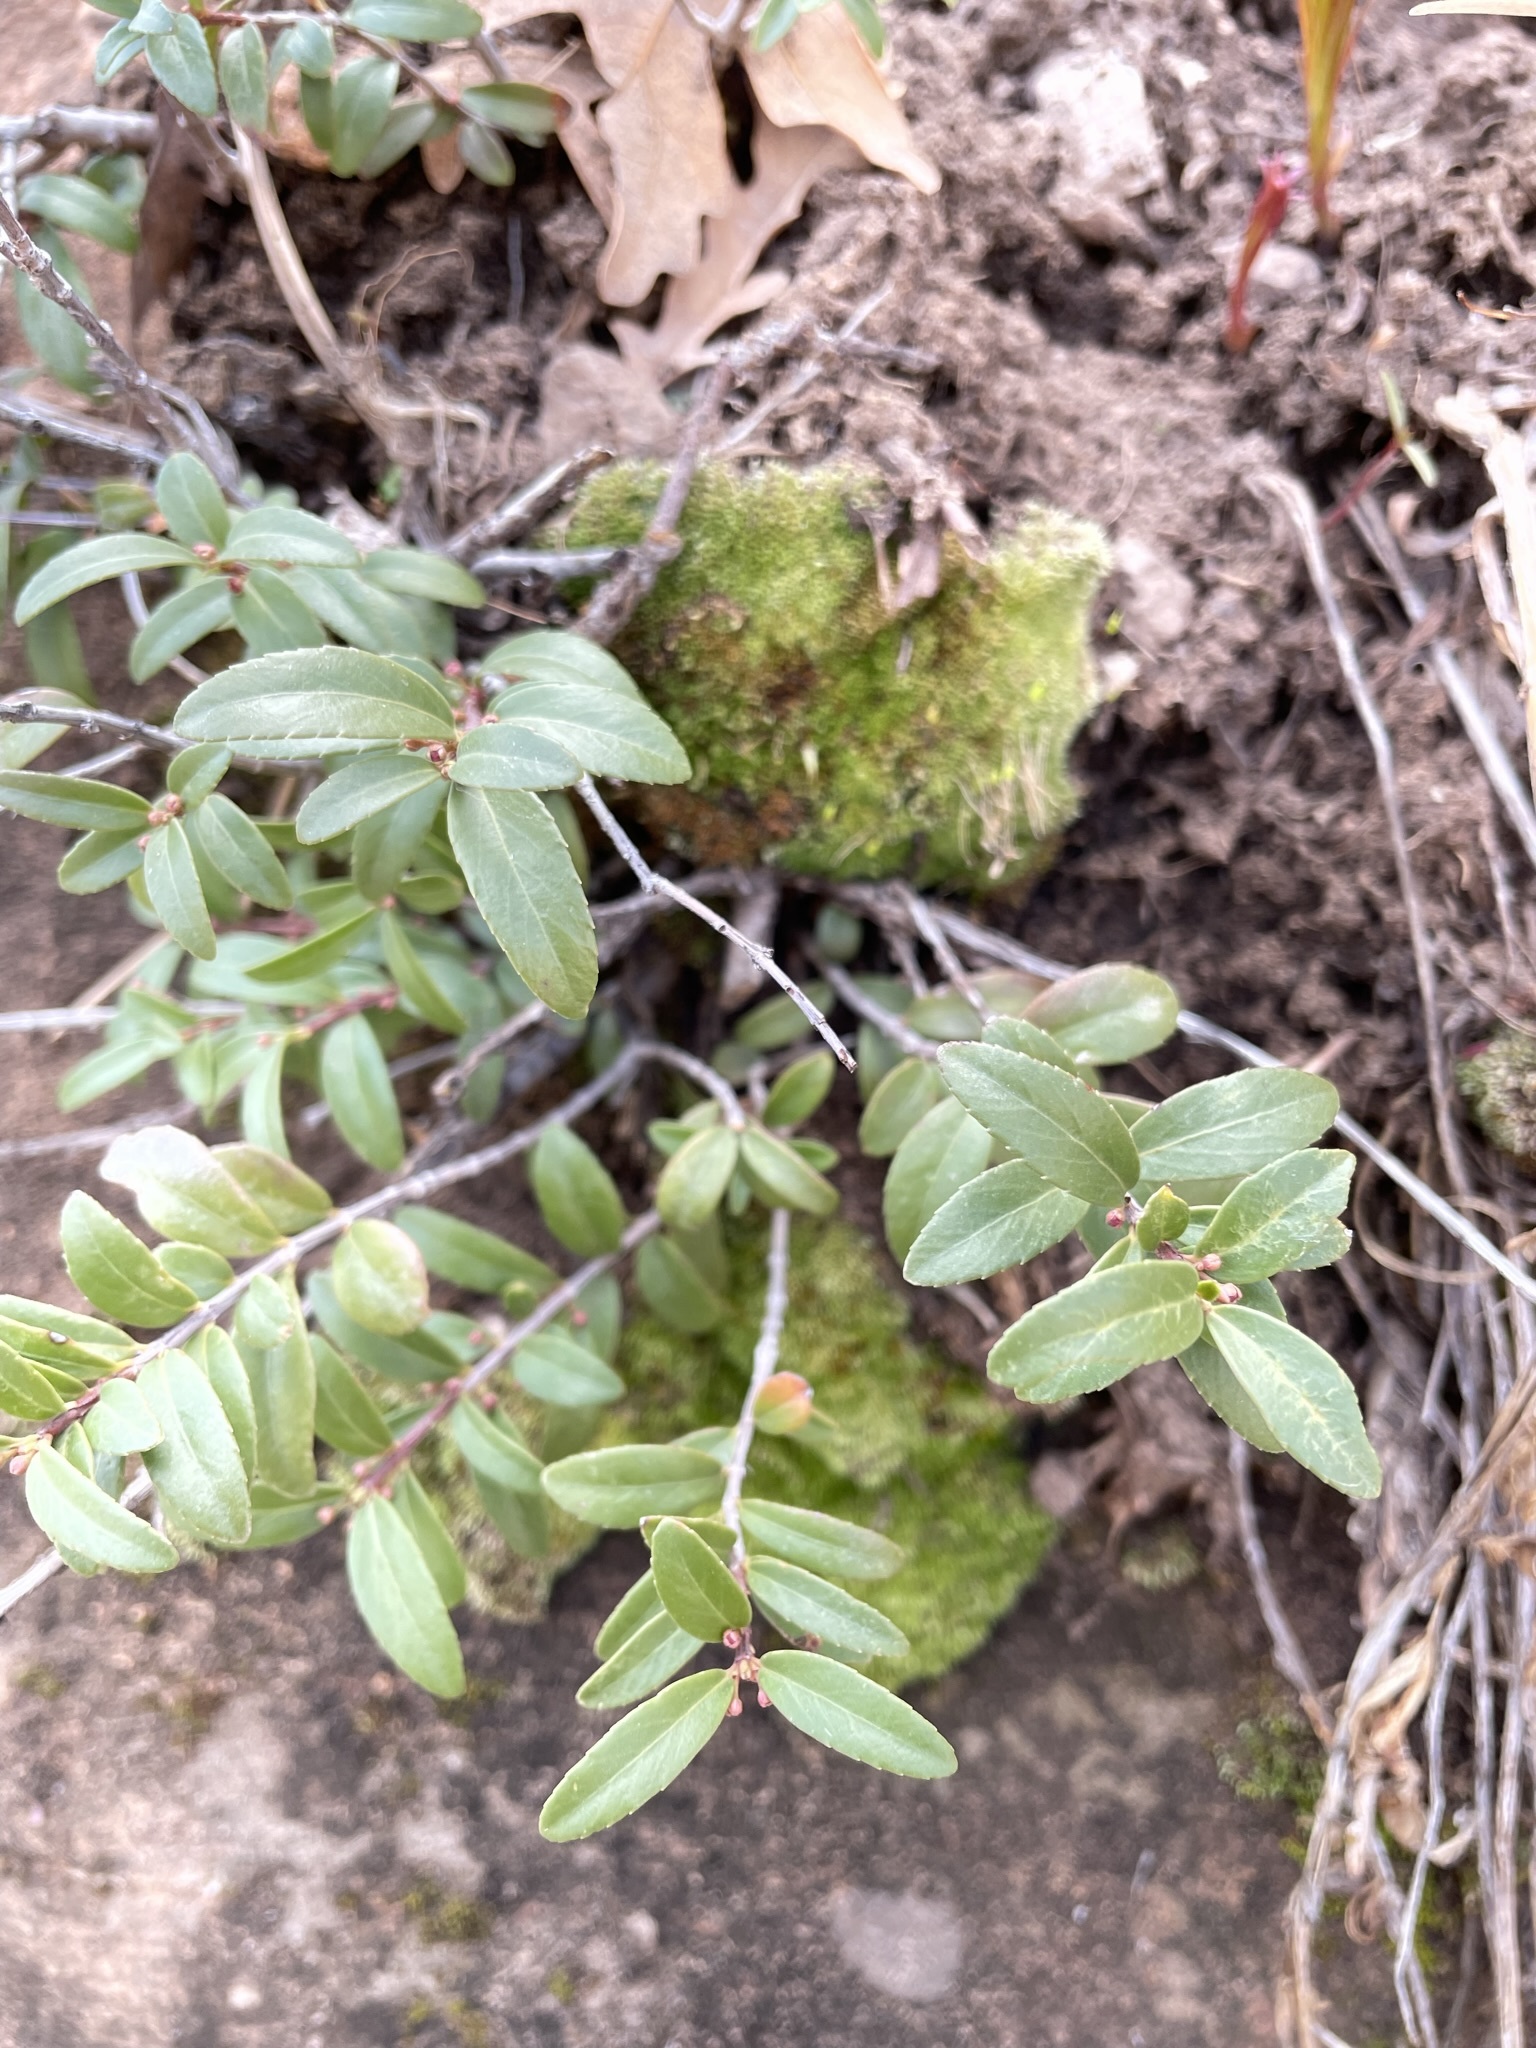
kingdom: Plantae
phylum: Tracheophyta
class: Magnoliopsida
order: Celastrales
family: Celastraceae
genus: Paxistima
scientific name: Paxistima myrsinites
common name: Mountain-lover
